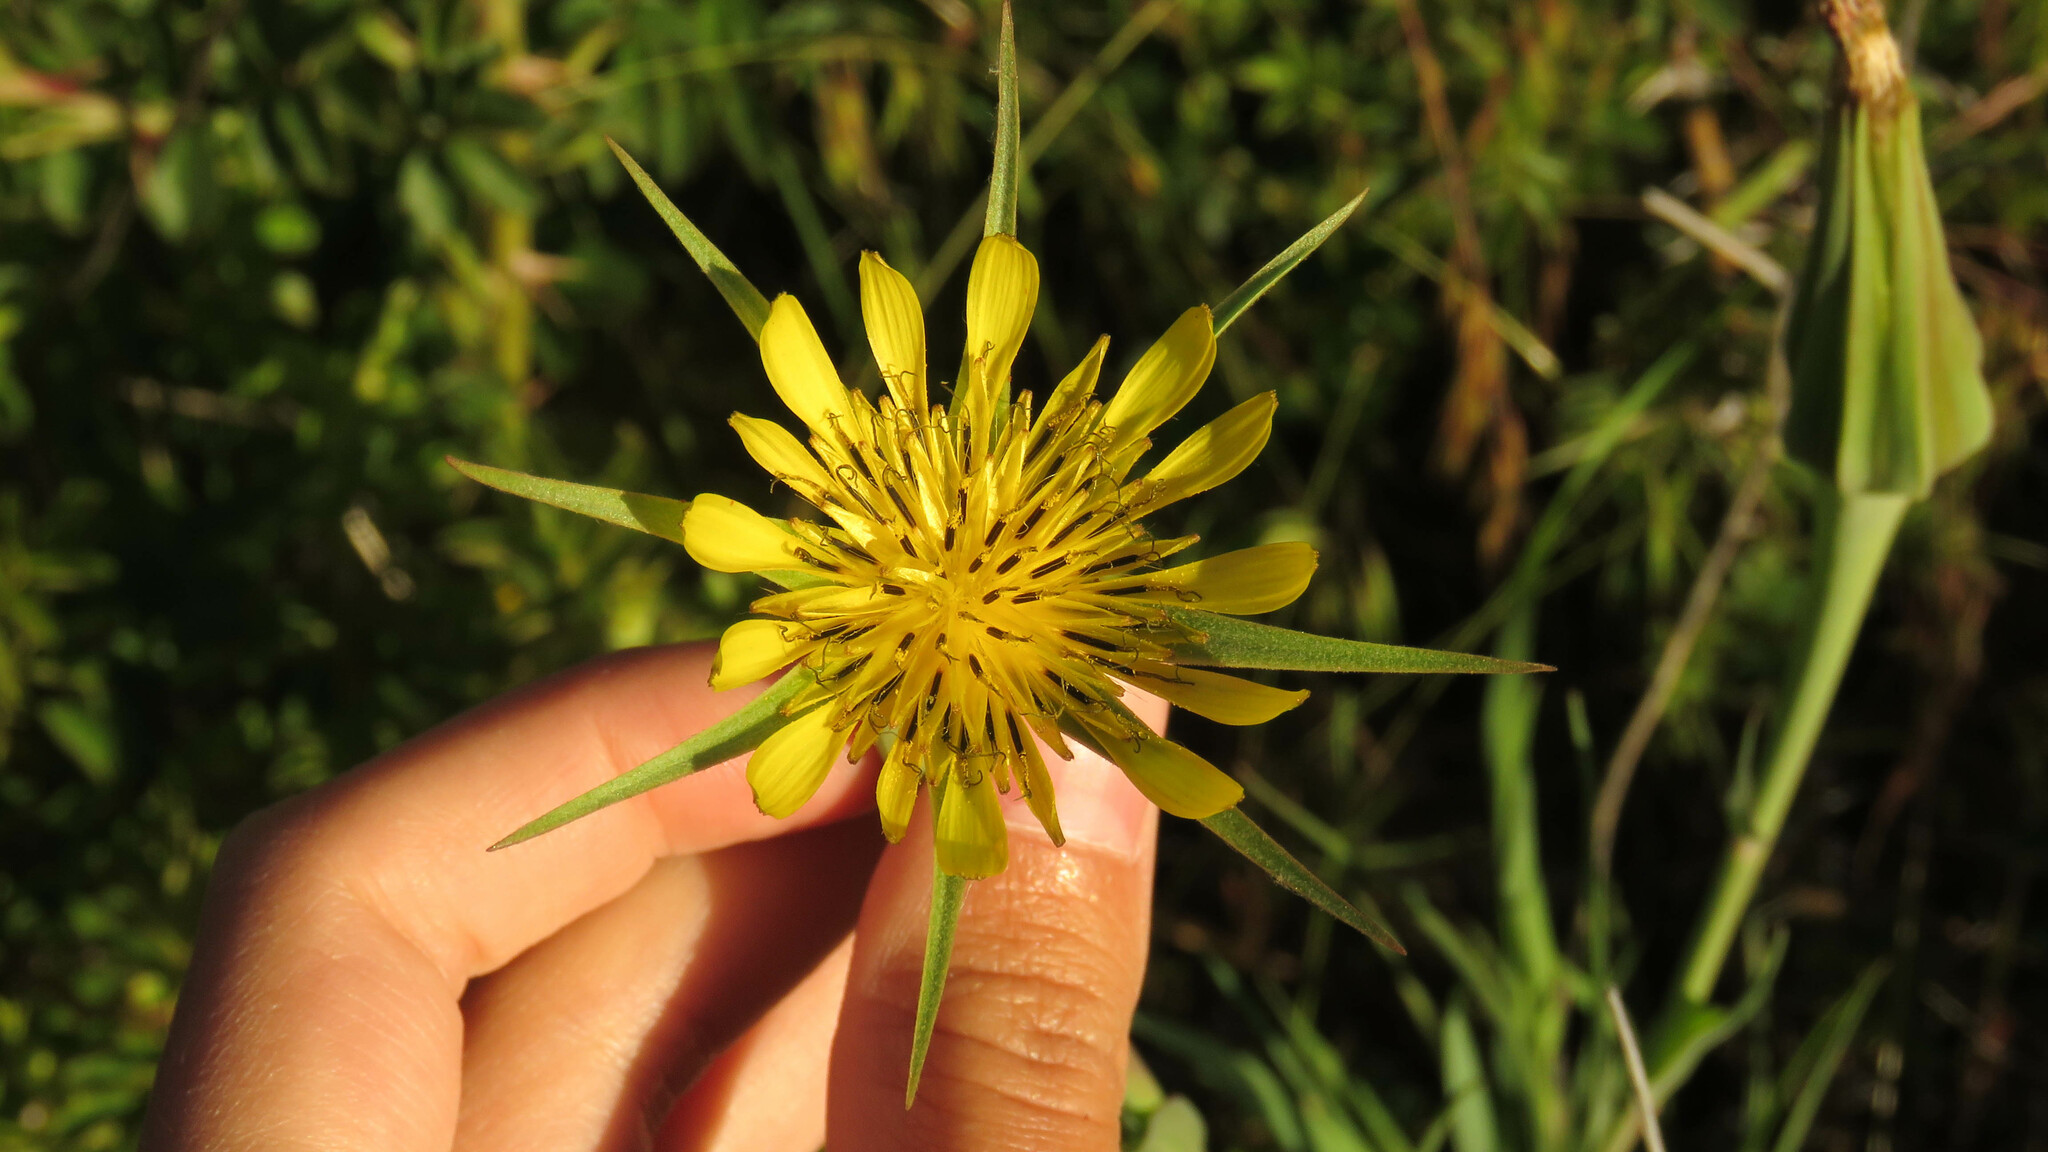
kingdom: Plantae
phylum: Tracheophyta
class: Magnoliopsida
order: Asterales
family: Asteraceae
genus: Tragopogon
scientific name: Tragopogon dubius
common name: Yellow salsify
